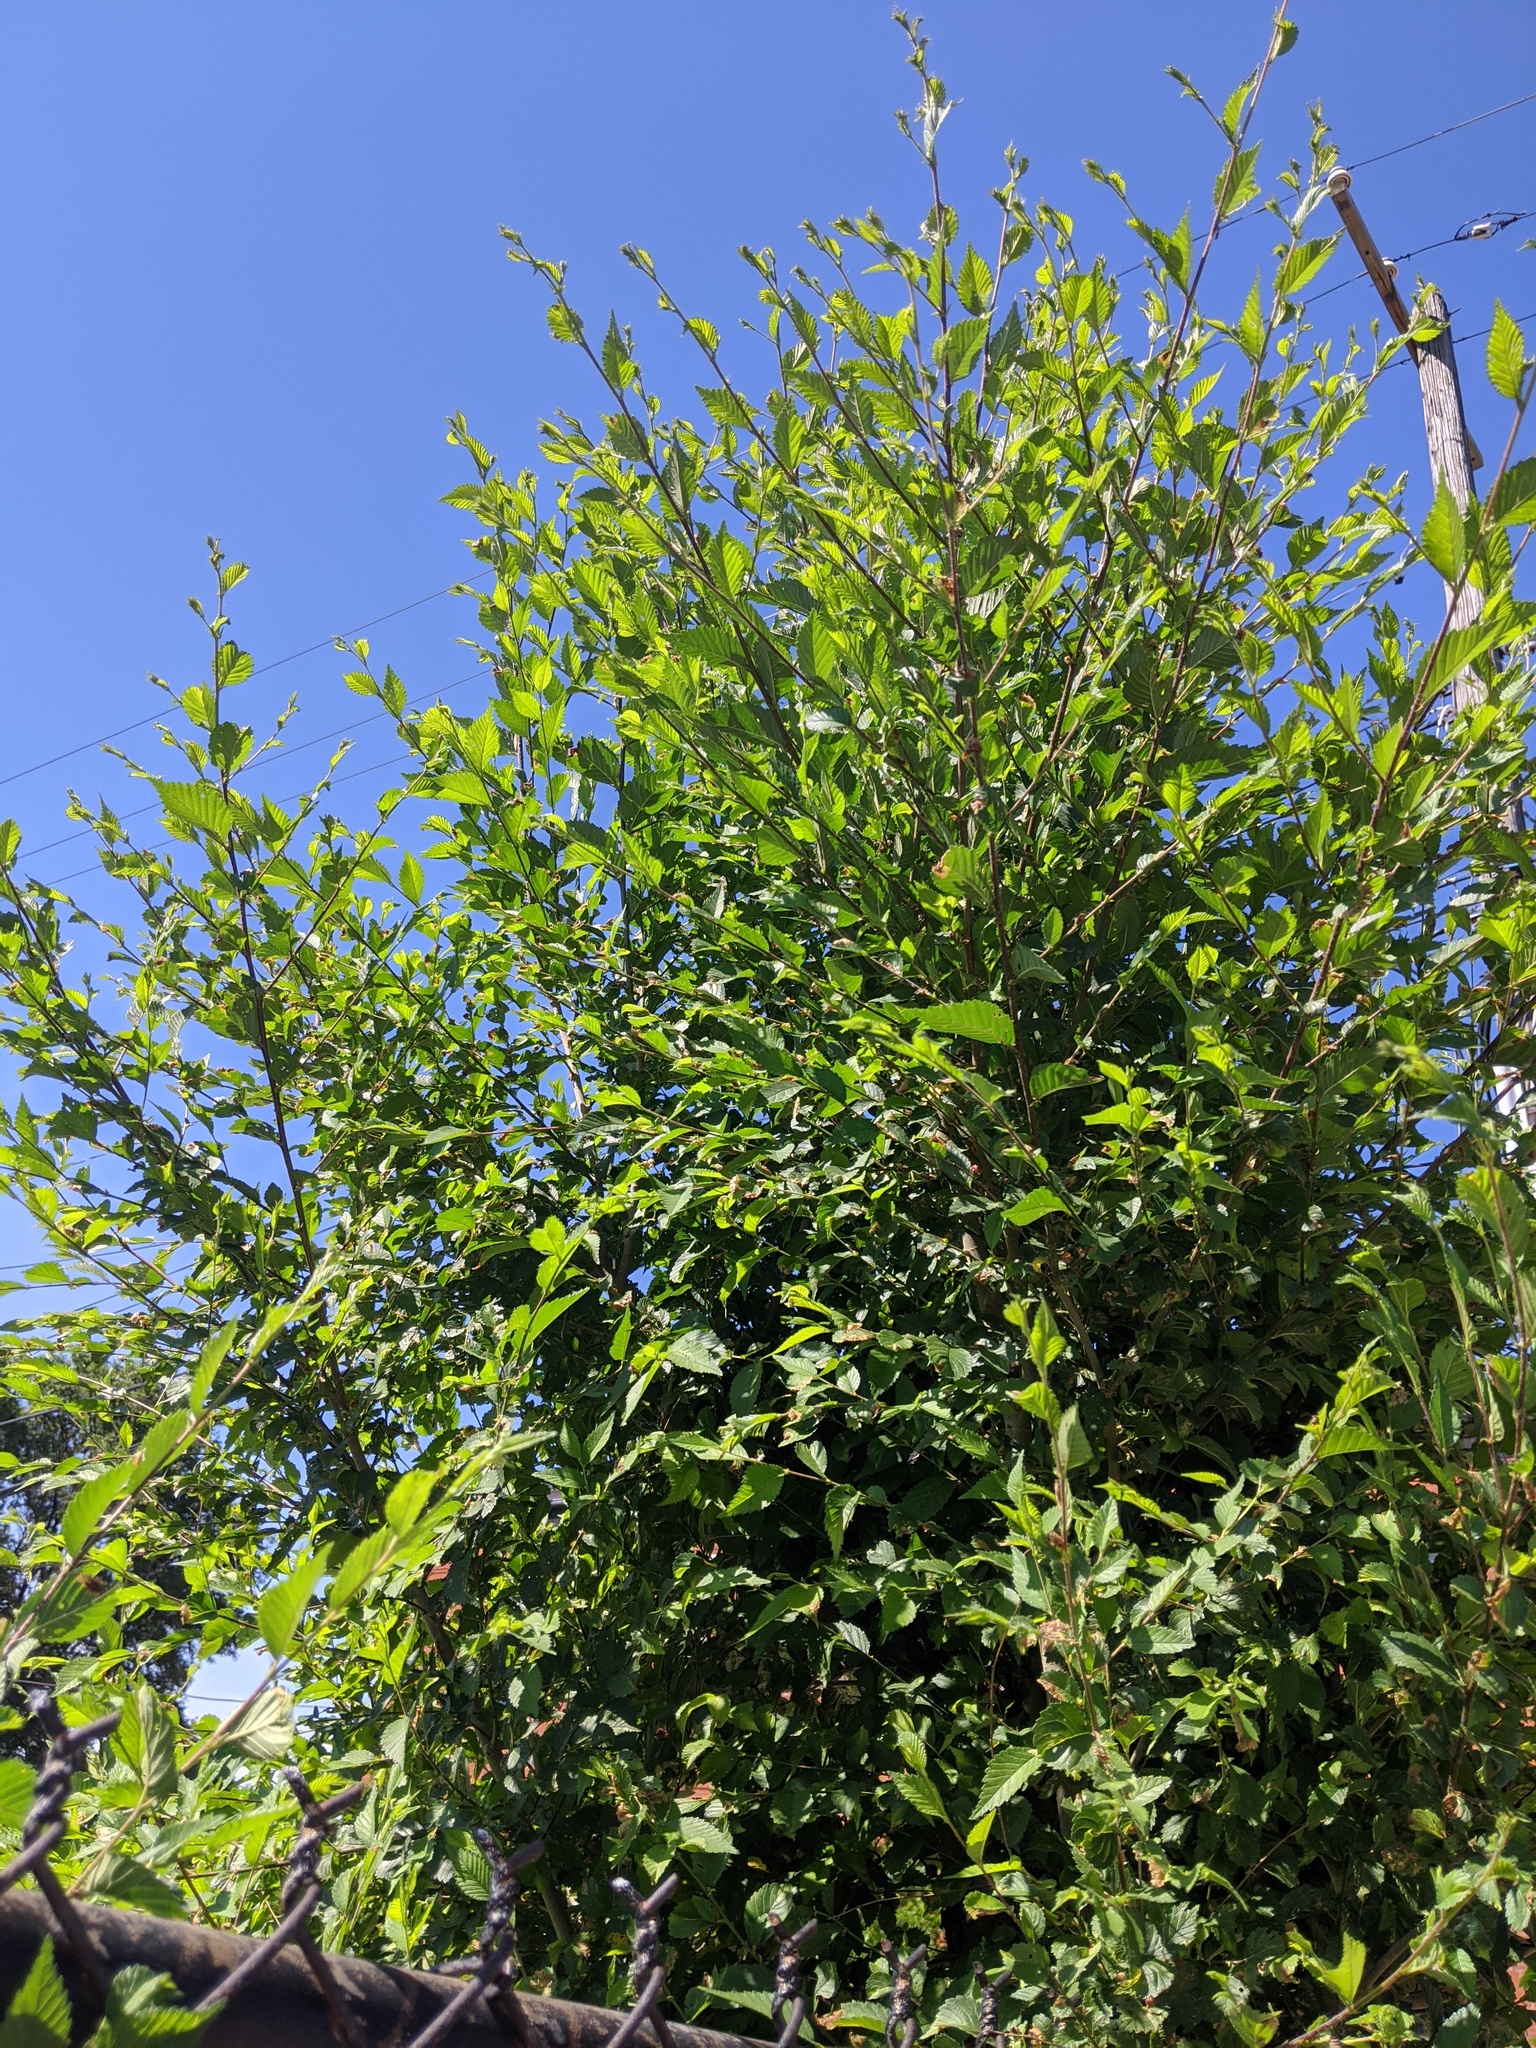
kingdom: Plantae
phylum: Tracheophyta
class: Magnoliopsida
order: Rosales
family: Ulmaceae
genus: Ulmus
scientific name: Ulmus pumila
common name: Siberian elm
